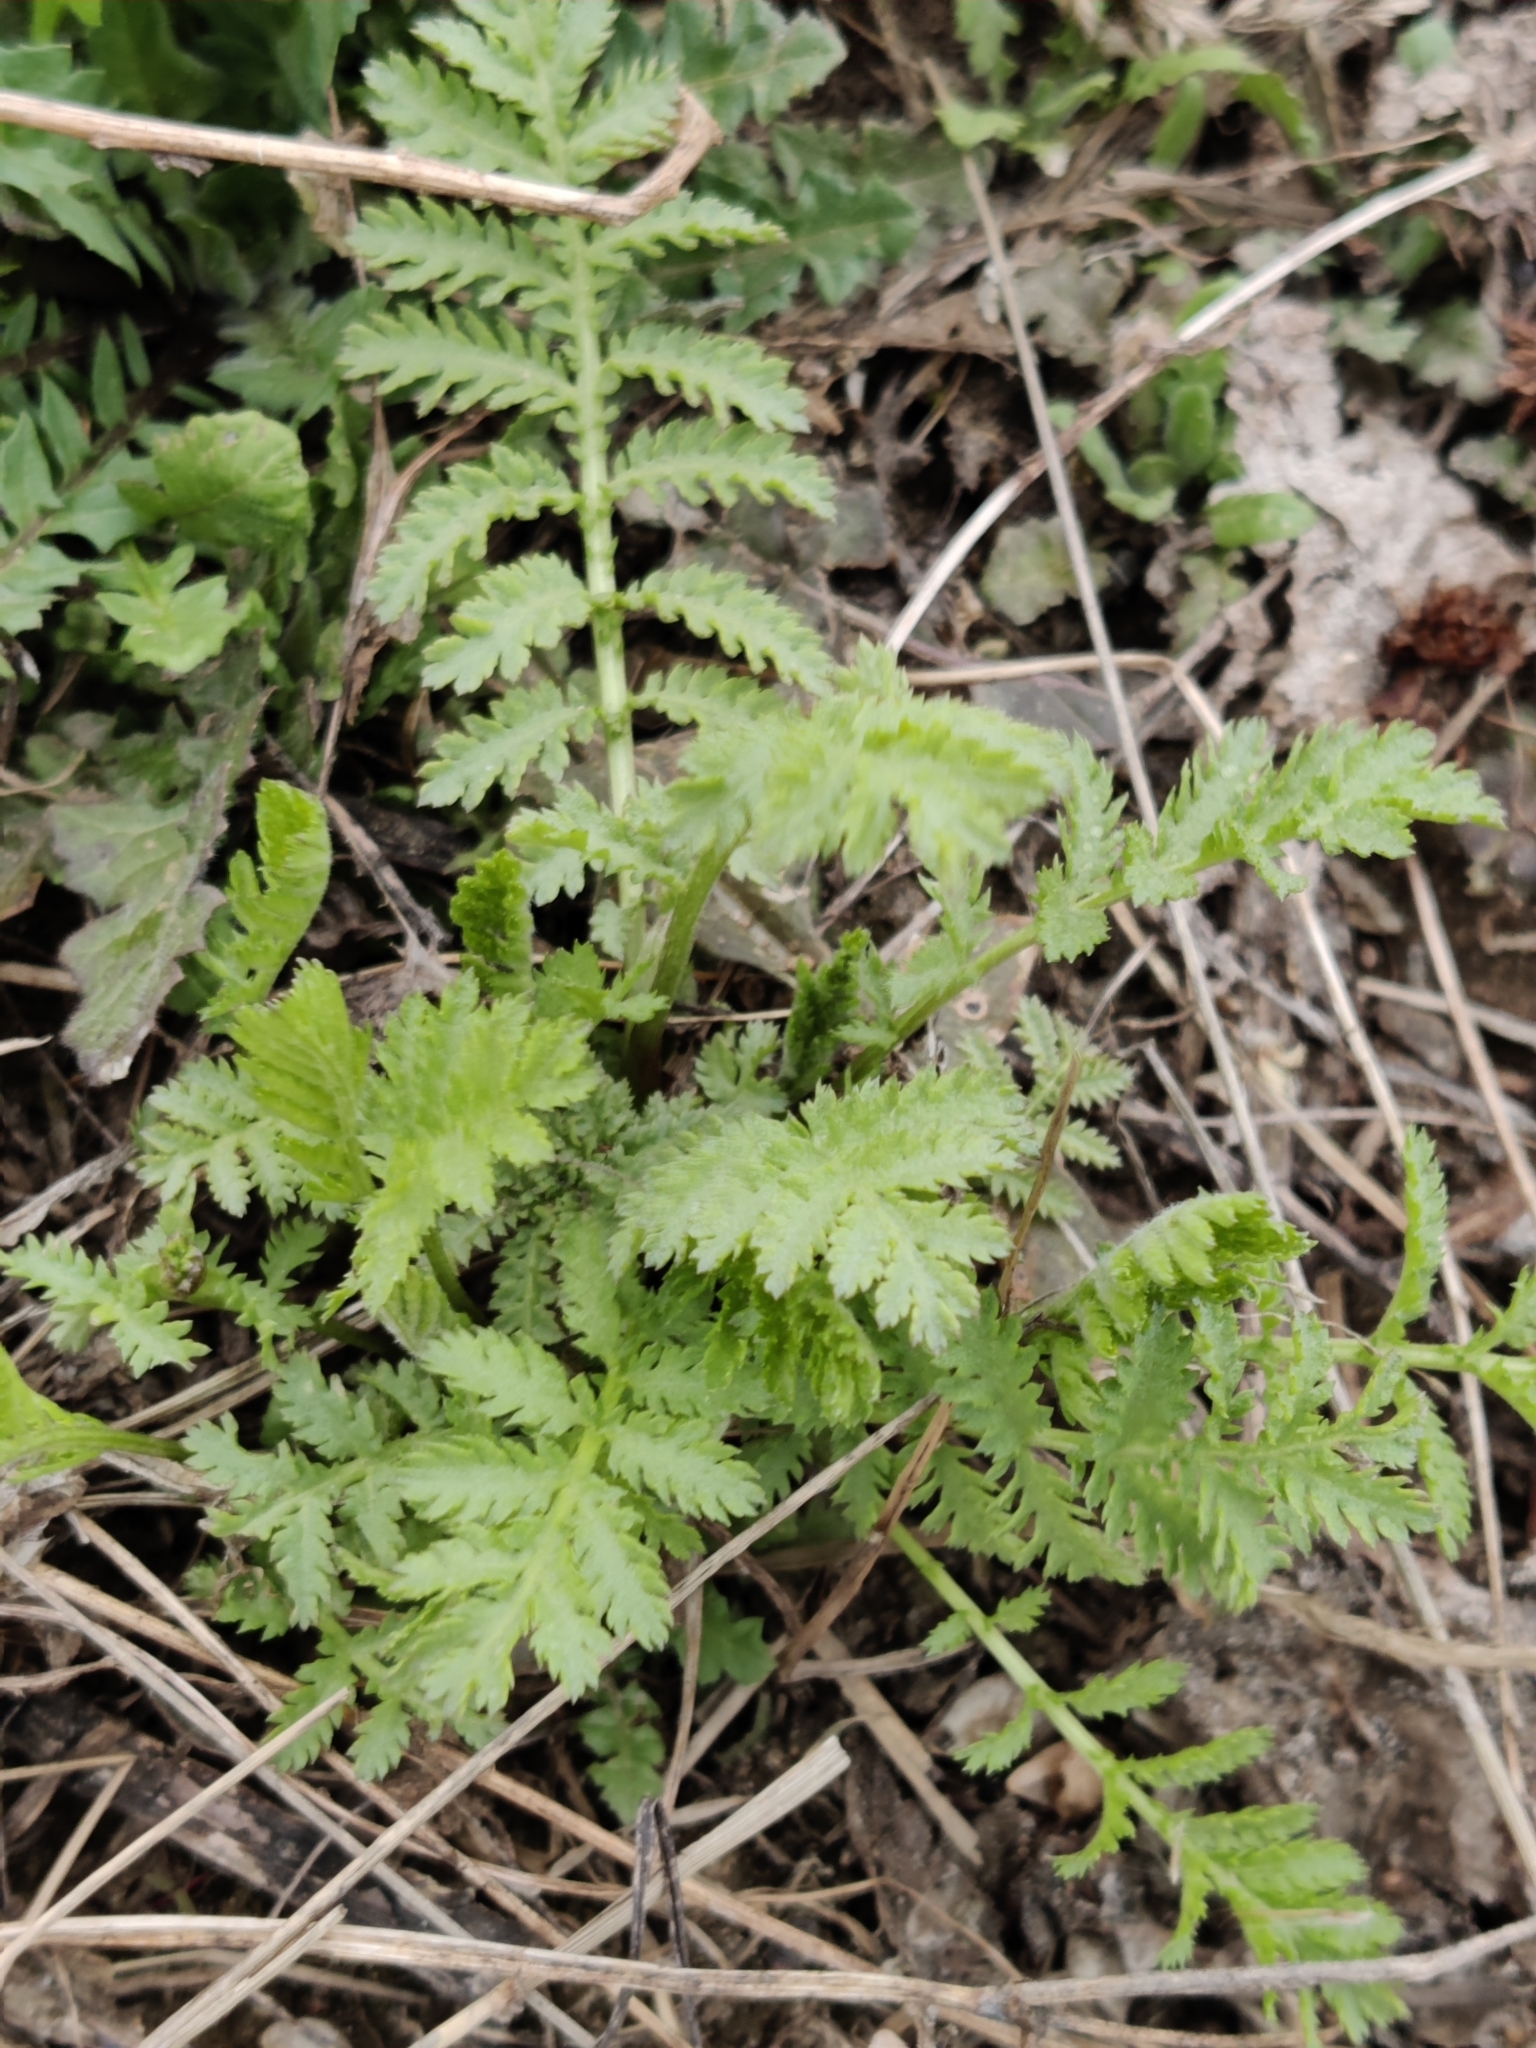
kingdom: Plantae
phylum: Tracheophyta
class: Magnoliopsida
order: Asterales
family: Asteraceae
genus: Tanacetum
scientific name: Tanacetum vulgare
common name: Common tansy
